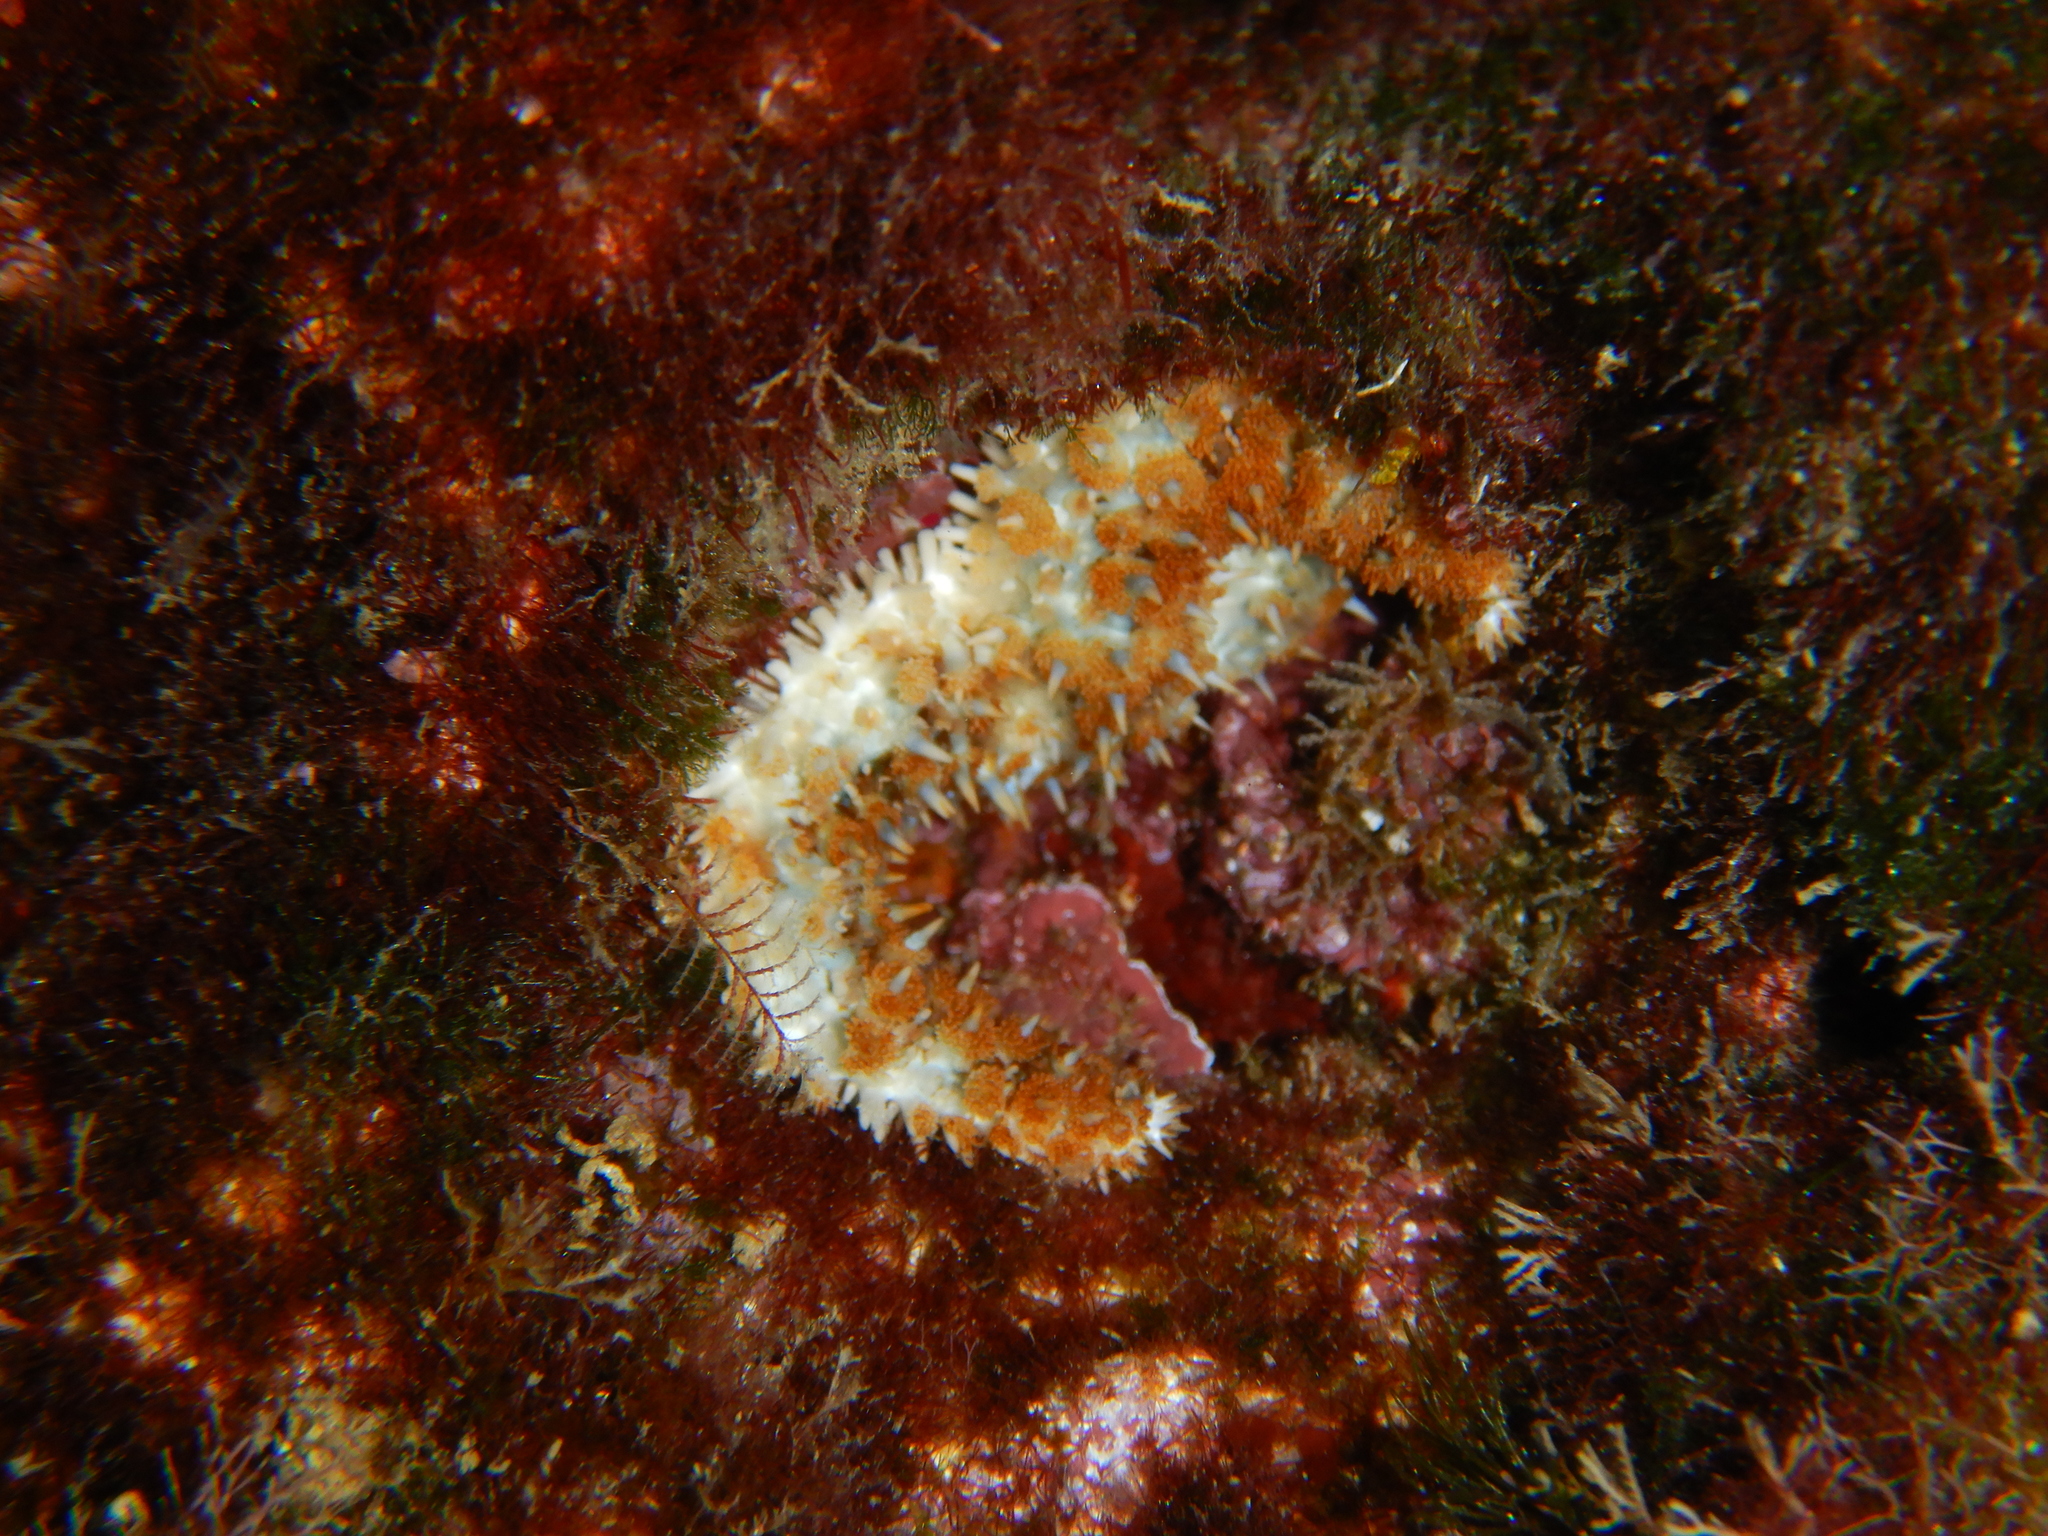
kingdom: Animalia
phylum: Echinodermata
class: Asteroidea
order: Forcipulatida
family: Asteriidae
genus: Coscinasterias
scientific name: Coscinasterias tenuispina
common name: Blue spiny starfish
